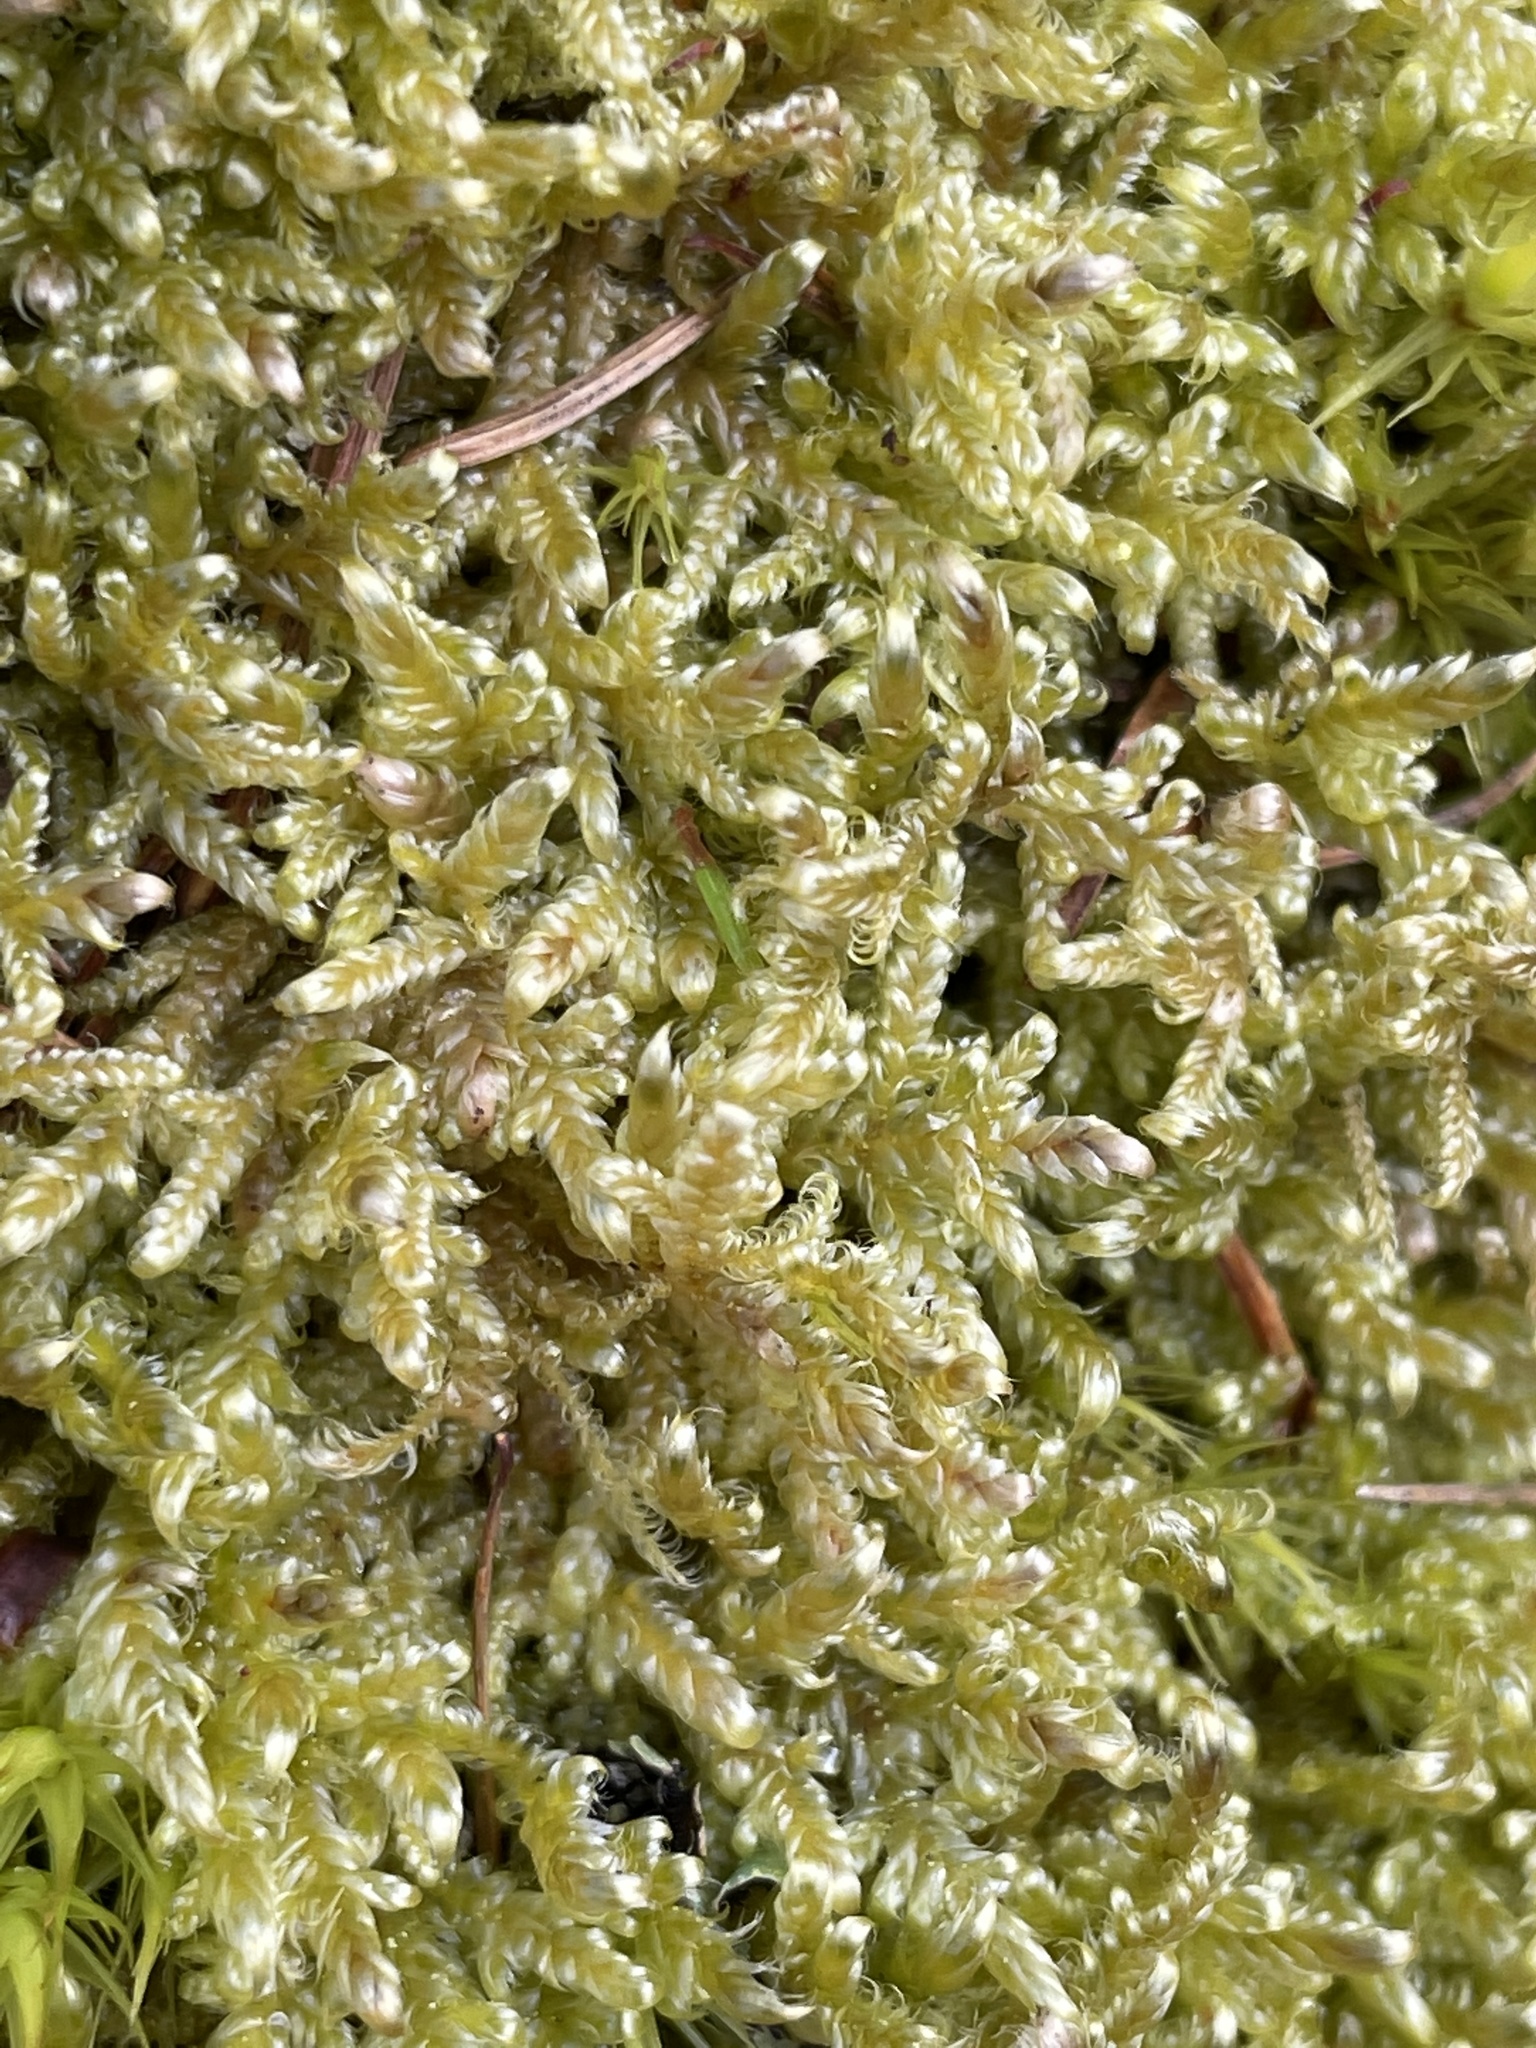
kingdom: Plantae
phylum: Bryophyta
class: Bryopsida
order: Hypnales
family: Hypnaceae
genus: Hypnum
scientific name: Hypnum cupressiforme
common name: Cypress-leaved plait-moss
